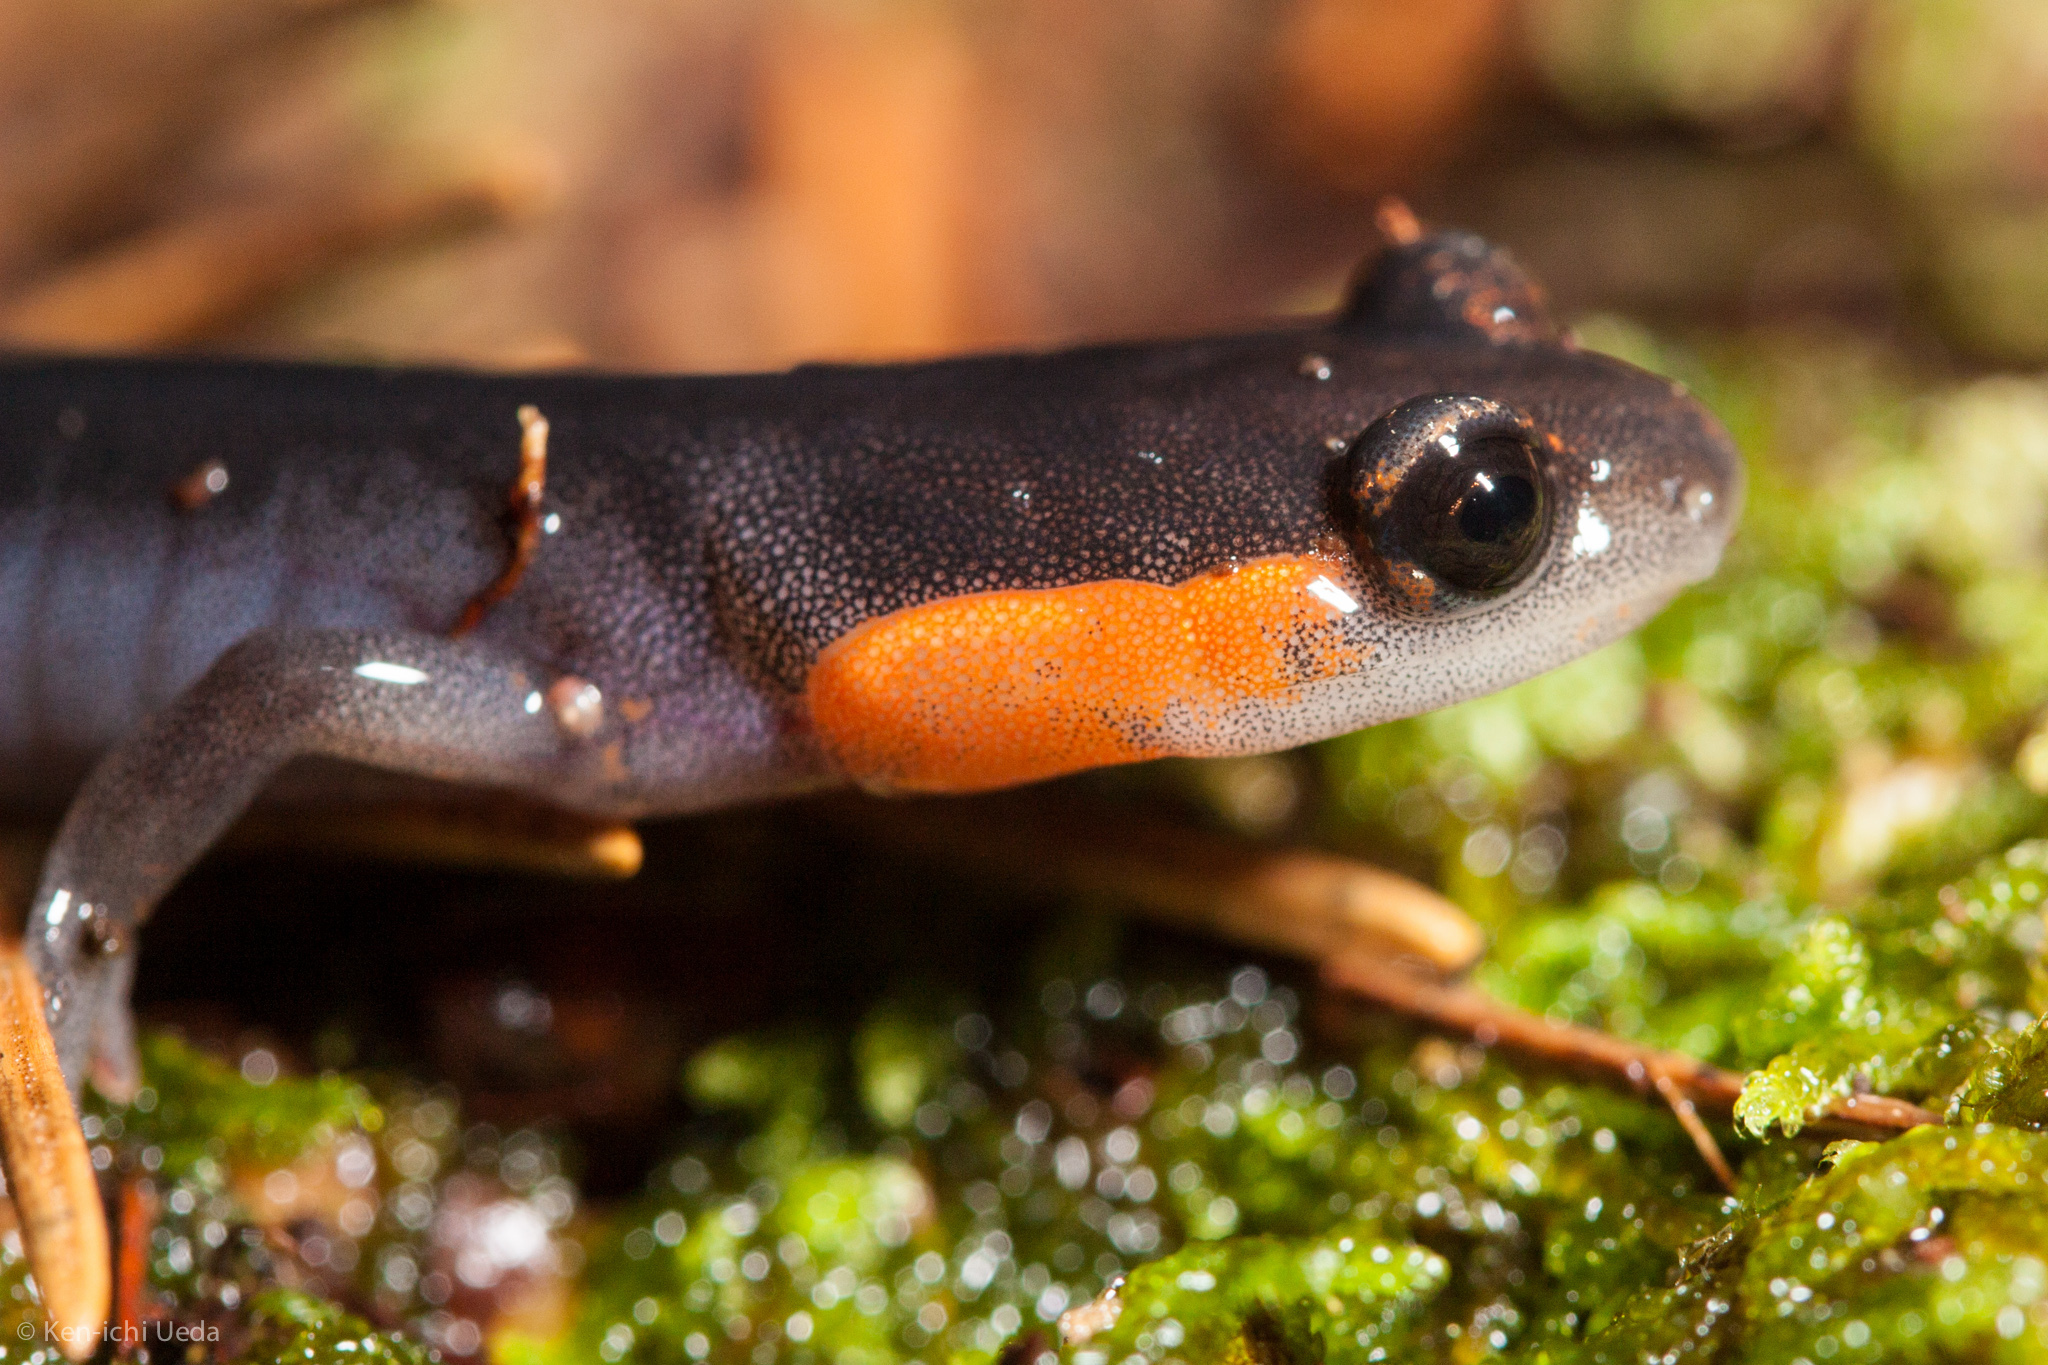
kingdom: Animalia
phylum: Chordata
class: Amphibia
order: Caudata
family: Plethodontidae
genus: Plethodon
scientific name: Plethodon jordani
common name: Red-cheeked salamander
